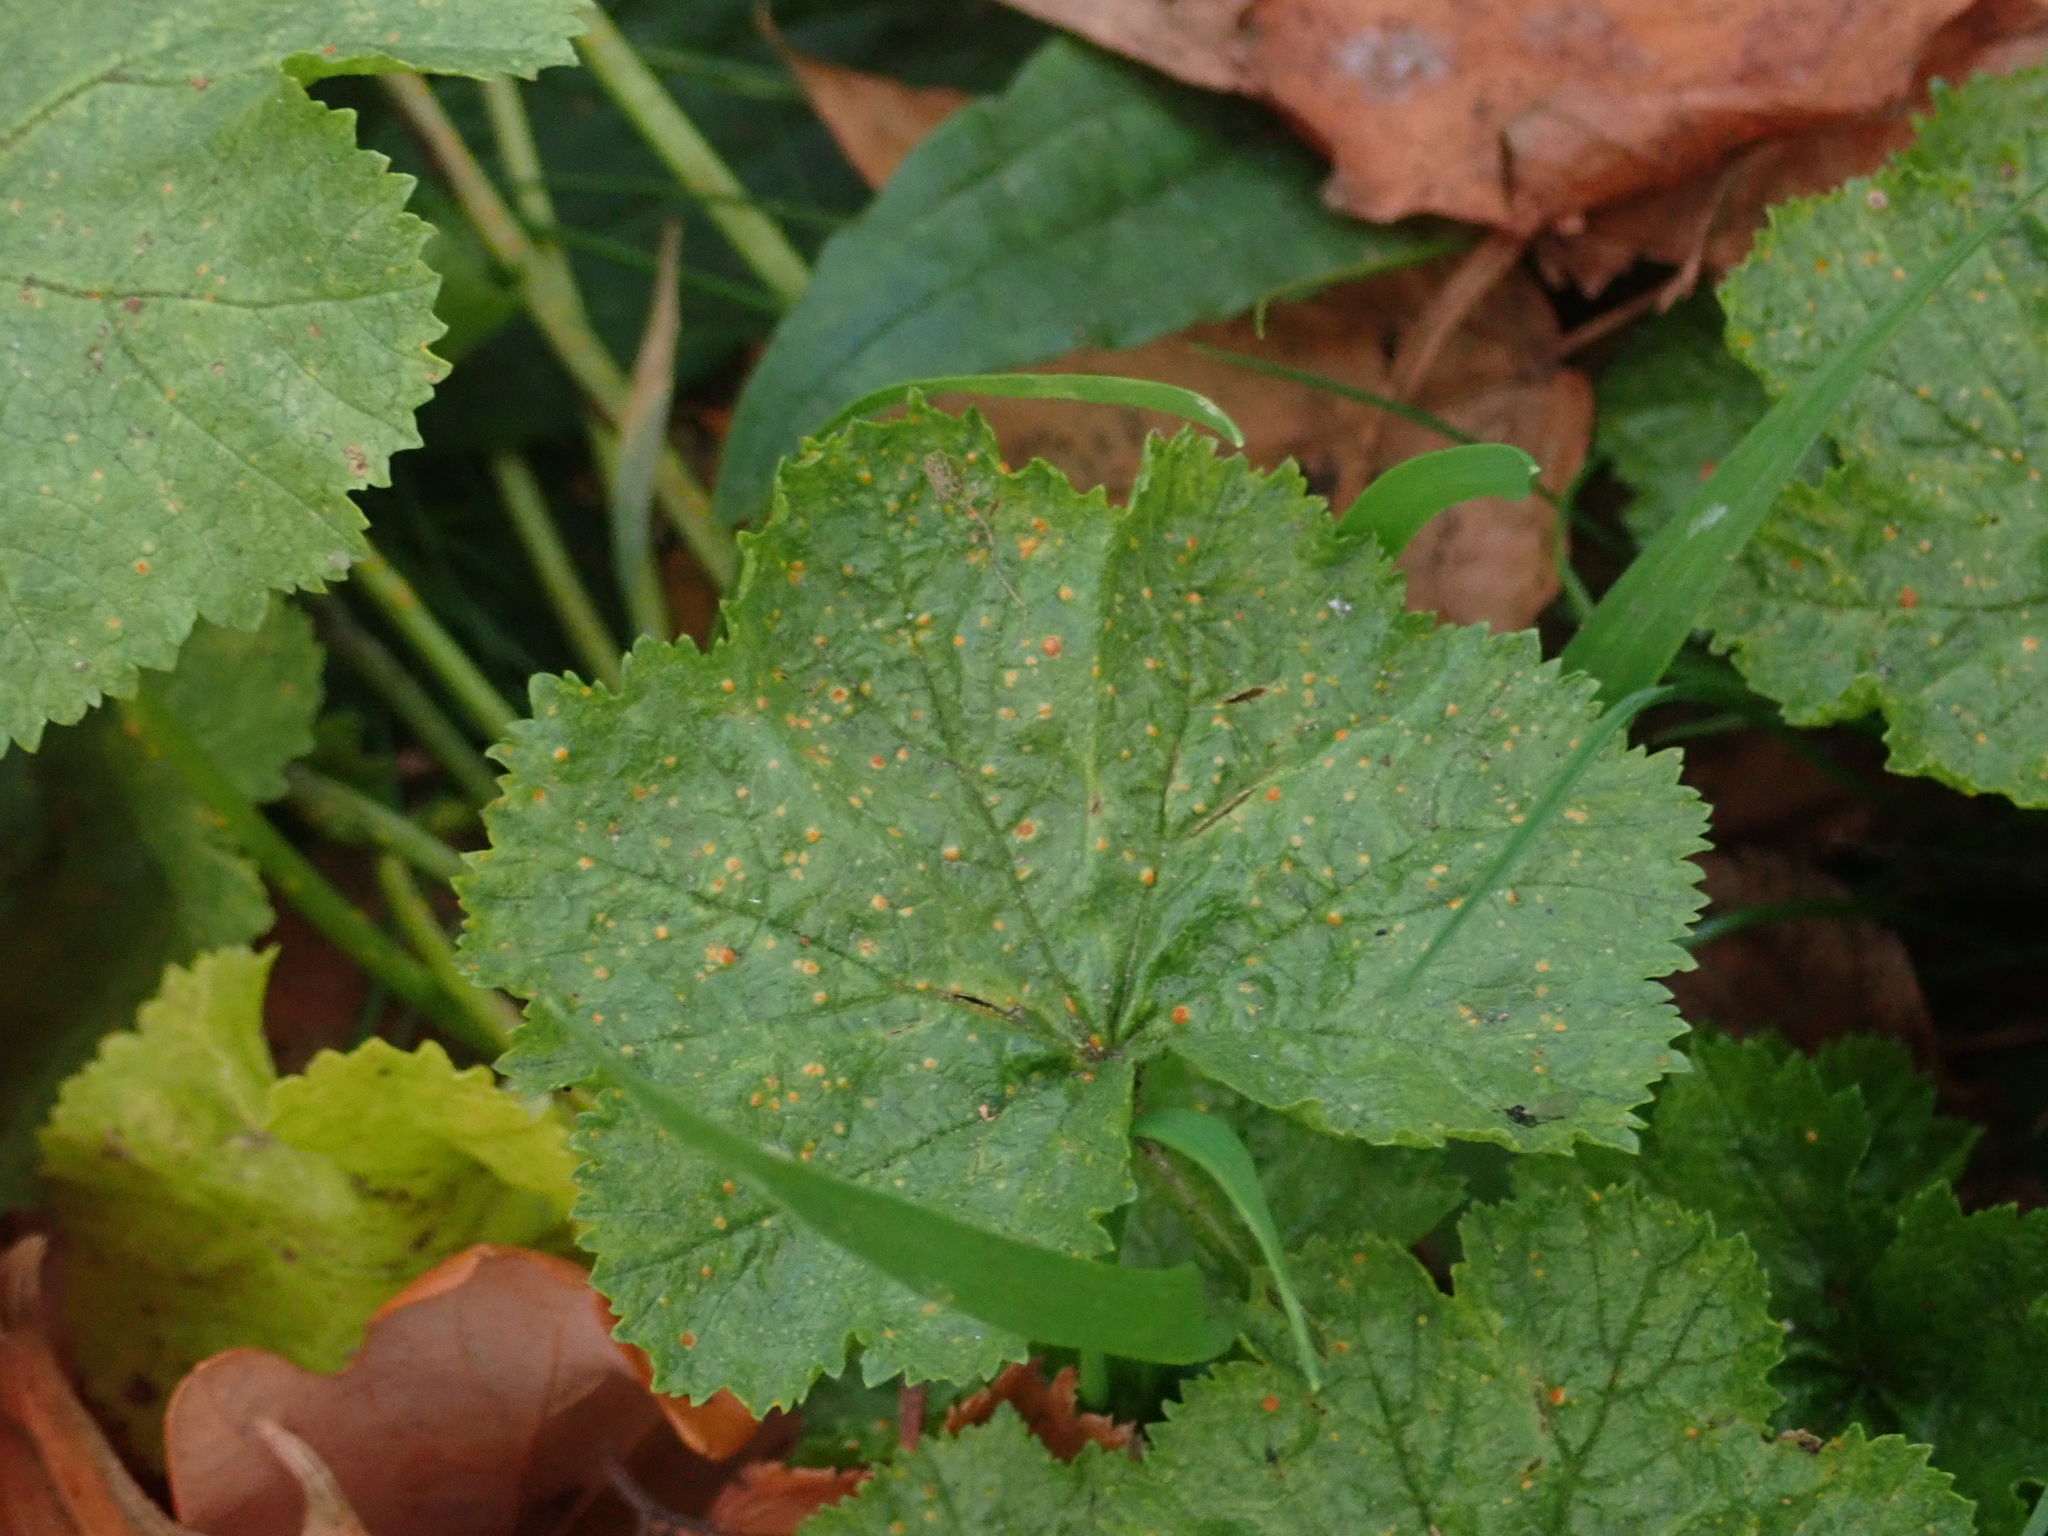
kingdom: Fungi
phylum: Basidiomycota
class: Pucciniomycetes
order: Pucciniales
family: Pucciniaceae
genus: Puccinia
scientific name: Puccinia malvacearum
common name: Hollyhock rust
